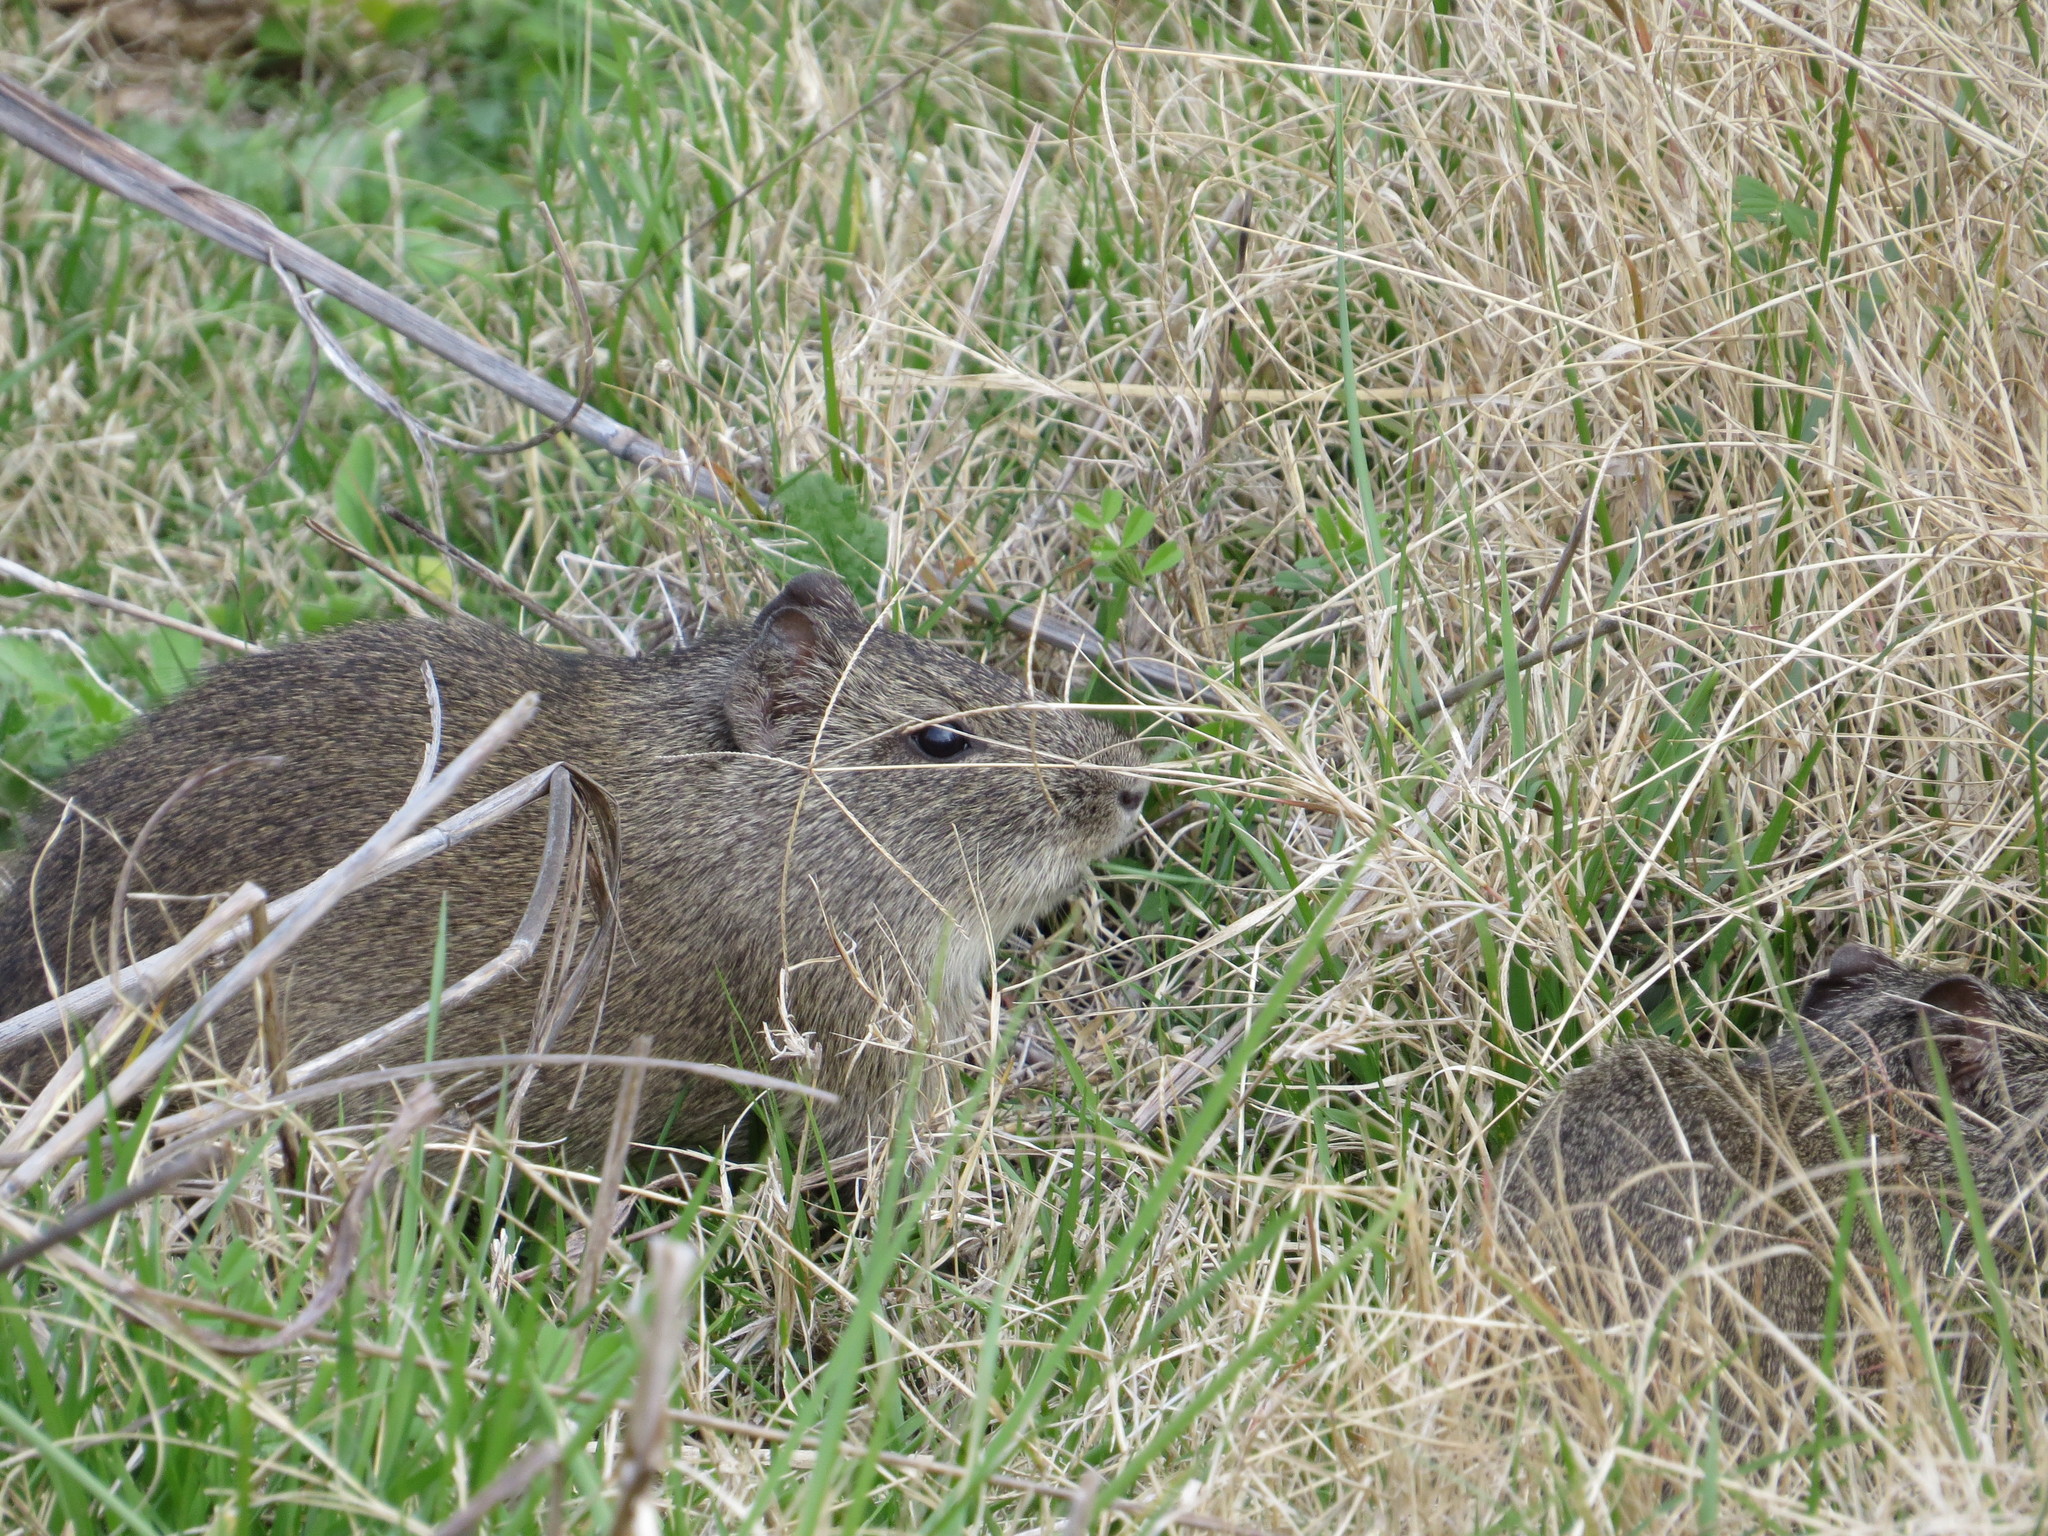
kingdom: Animalia
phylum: Chordata
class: Mammalia
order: Rodentia
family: Caviidae
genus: Cavia
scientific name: Cavia aperea
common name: Brazilian guinea pig
